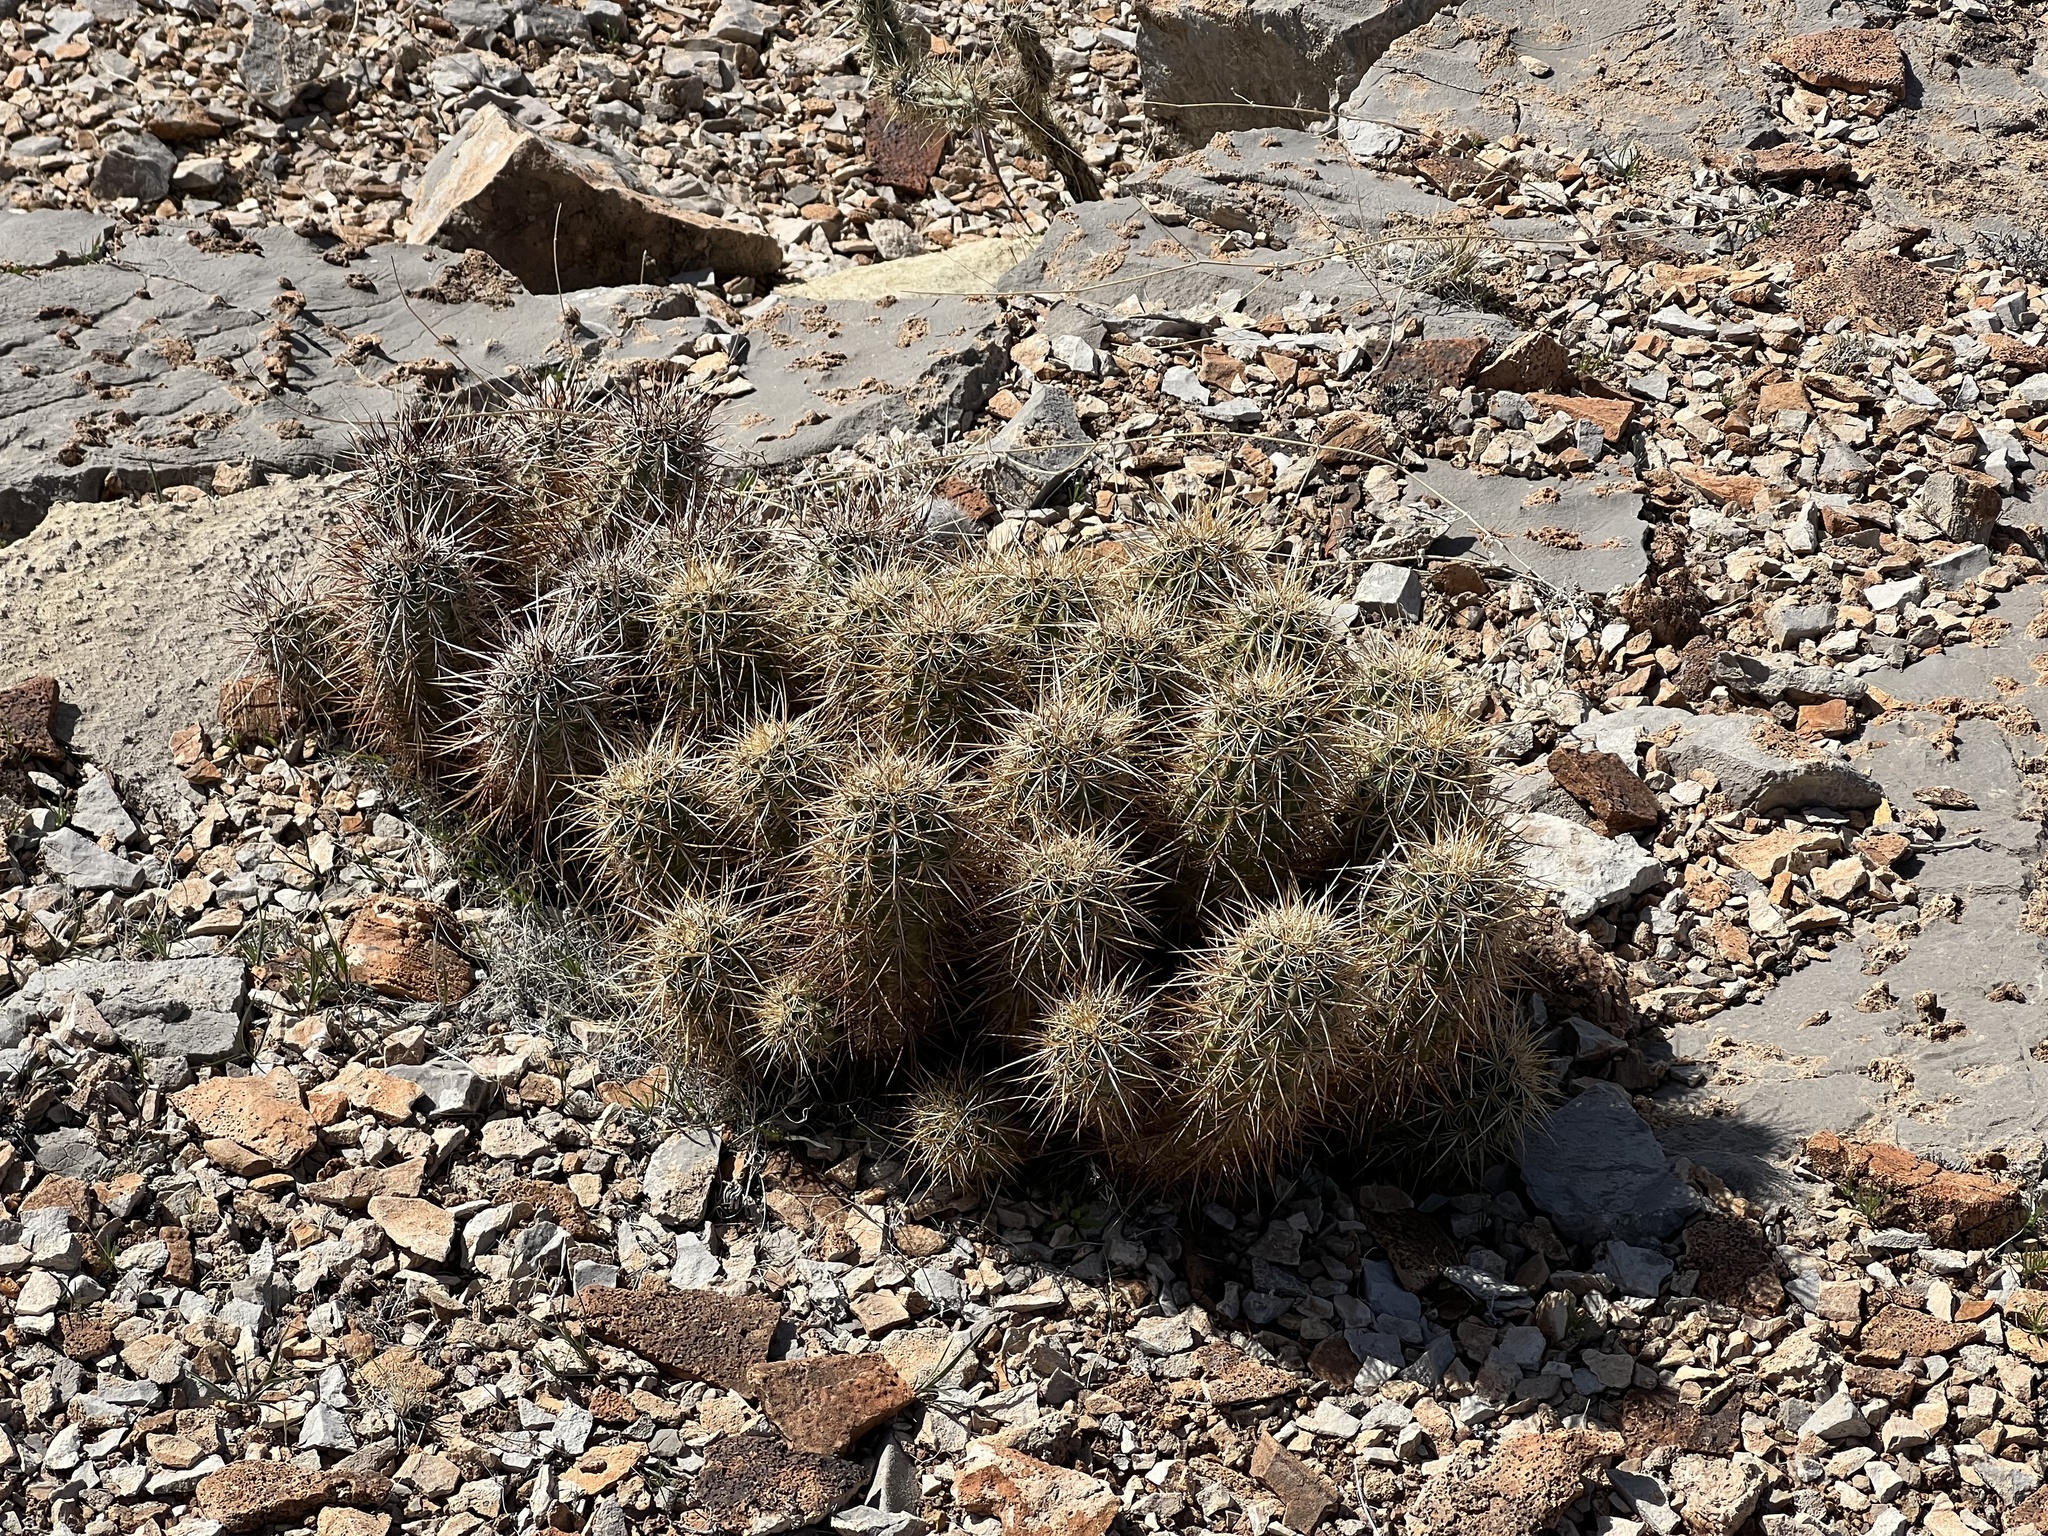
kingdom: Plantae
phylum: Tracheophyta
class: Magnoliopsida
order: Caryophyllales
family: Cactaceae
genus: Echinocereus
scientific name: Echinocereus engelmannii
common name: Engelmann's hedgehog cactus
